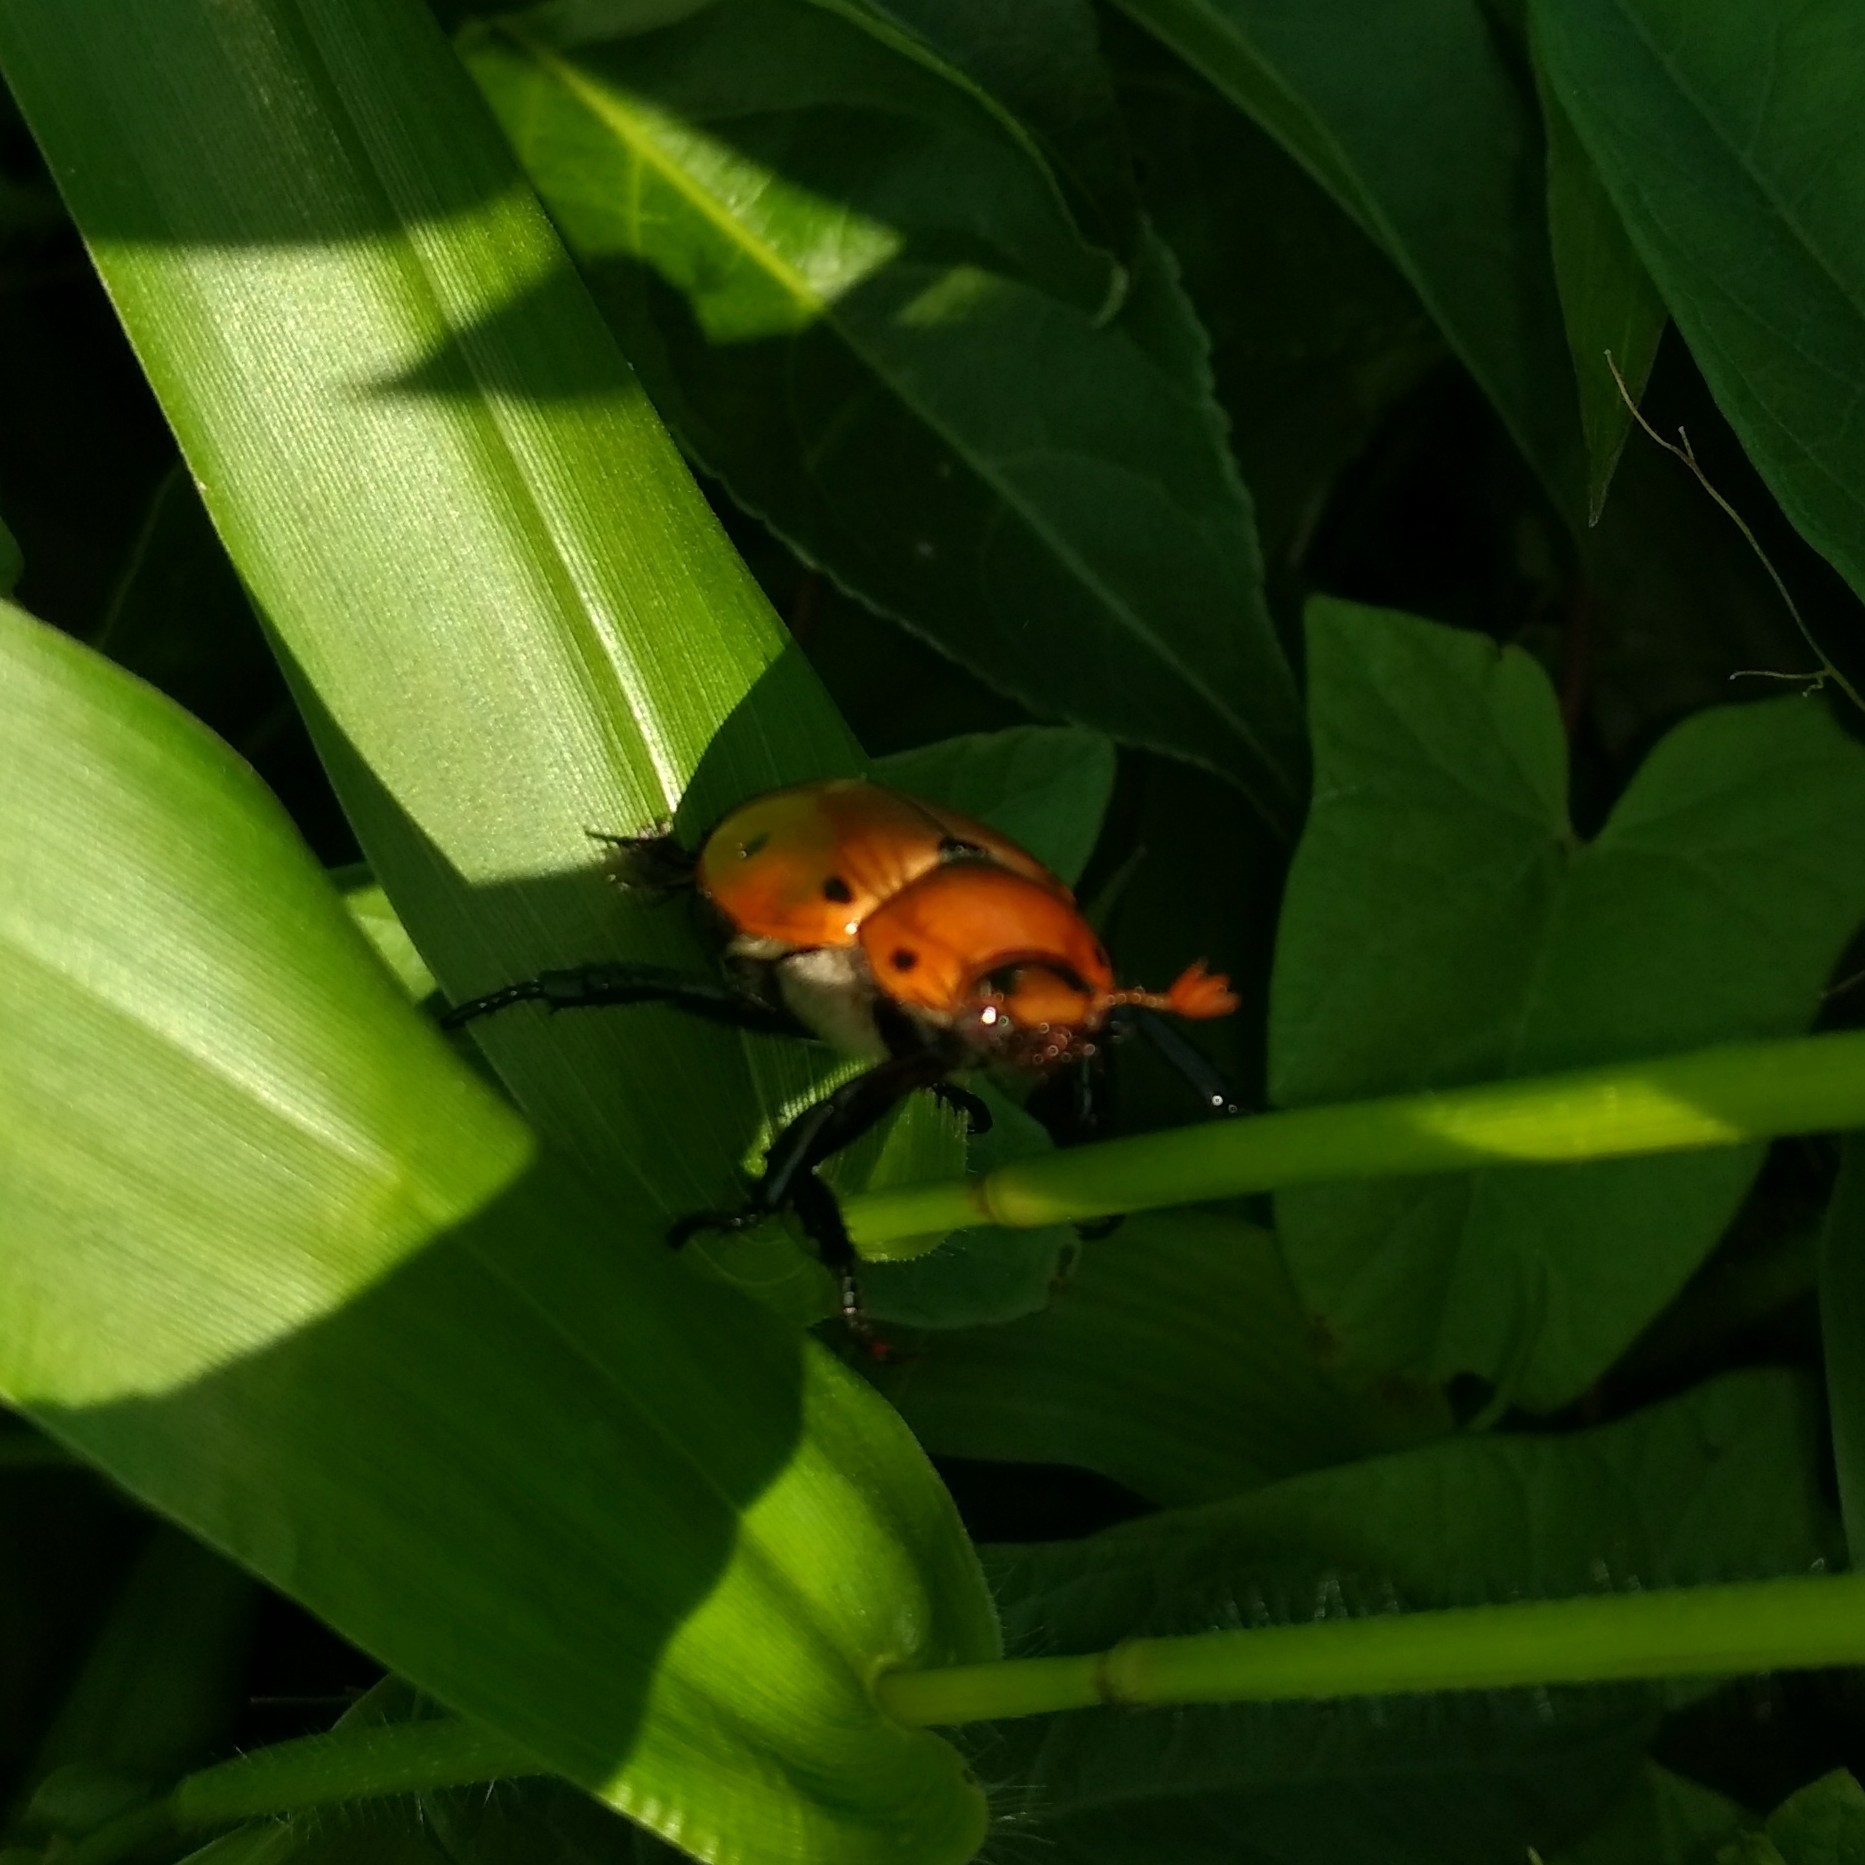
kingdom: Animalia
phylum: Arthropoda
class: Insecta
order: Coleoptera
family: Scarabaeidae
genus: Pelidnota
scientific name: Pelidnota punctata
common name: Grapevine beetle
